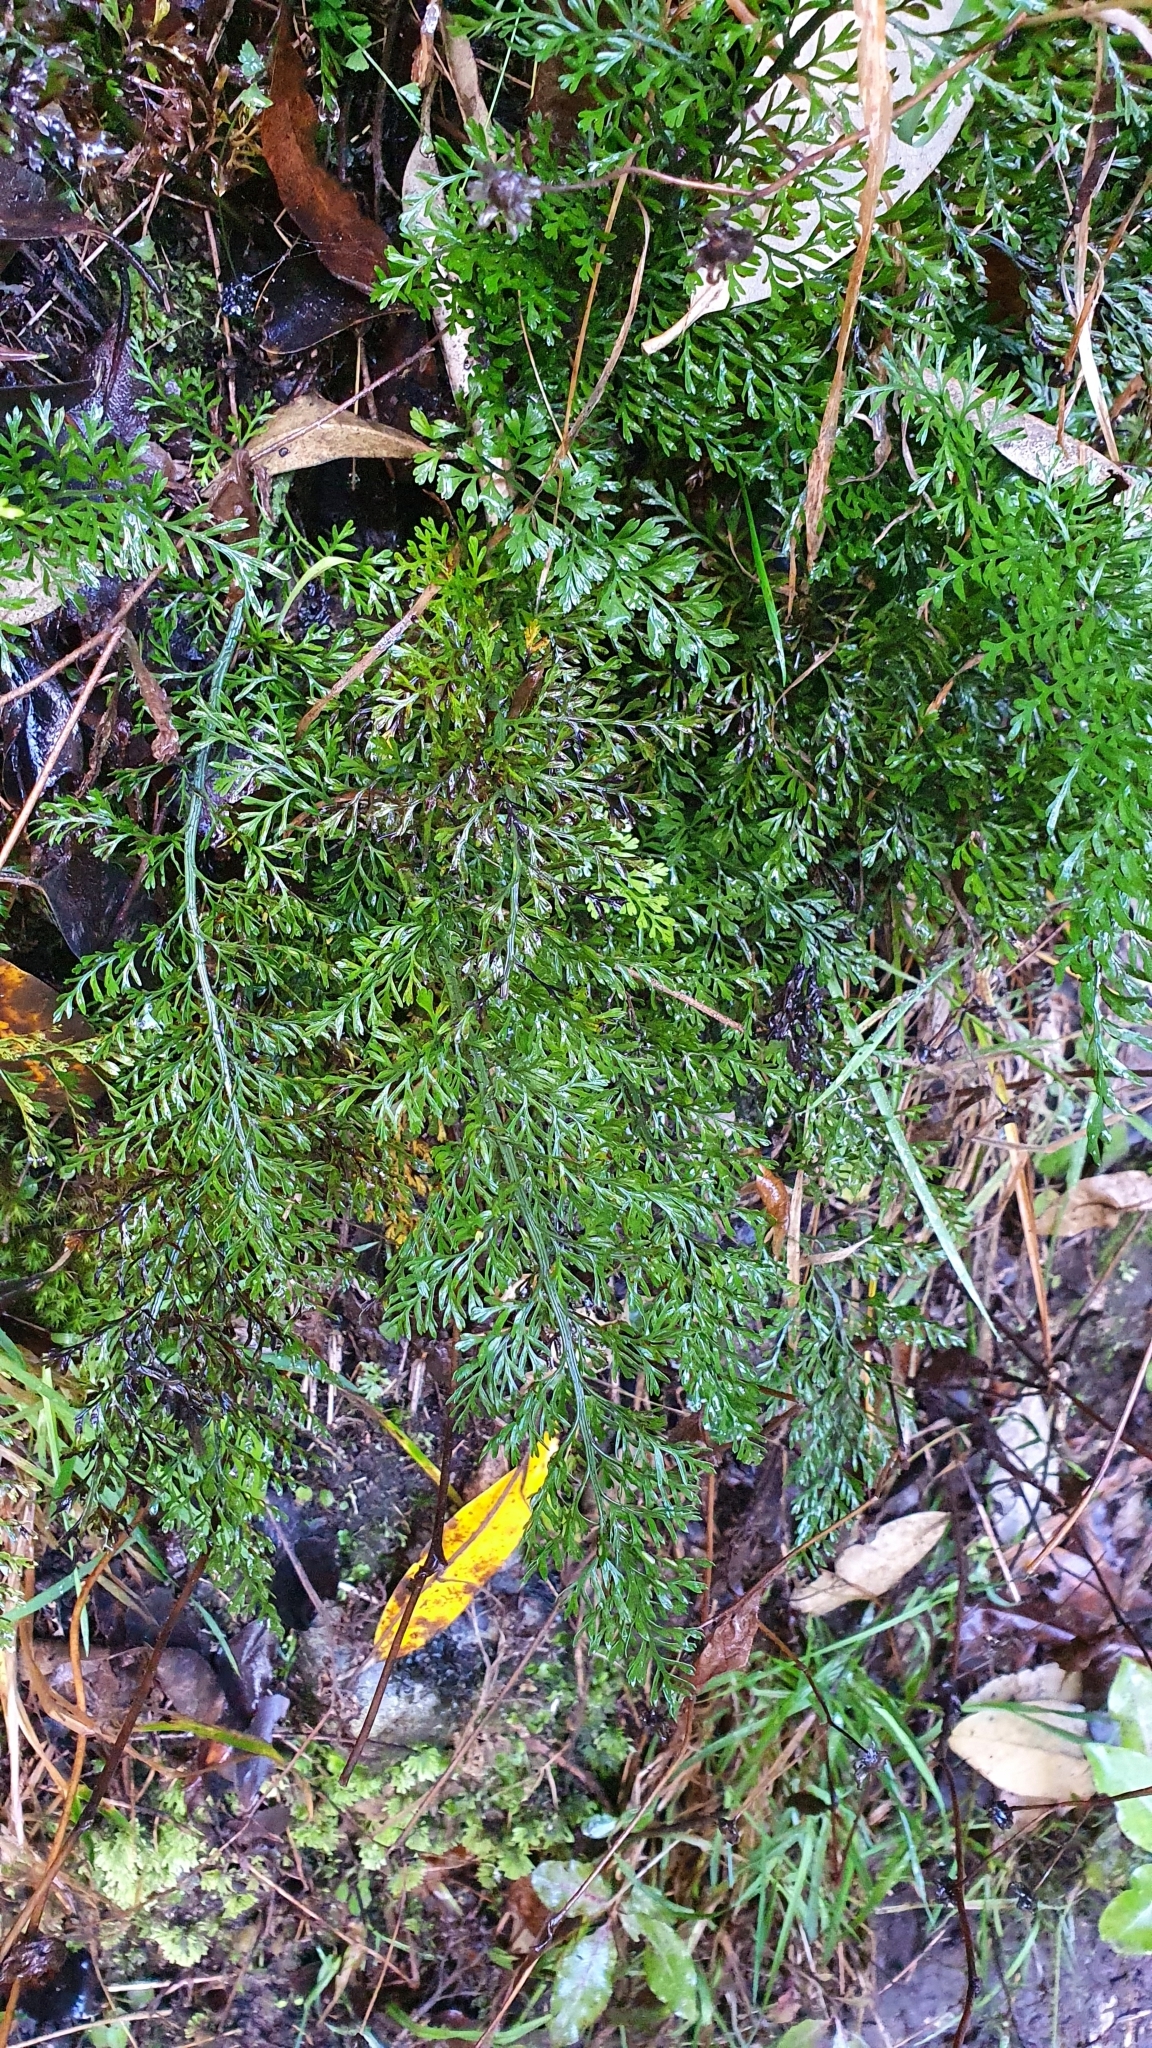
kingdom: Plantae
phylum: Tracheophyta
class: Polypodiopsida
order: Polypodiales
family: Aspleniaceae
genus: Asplenium
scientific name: Asplenium richardii
